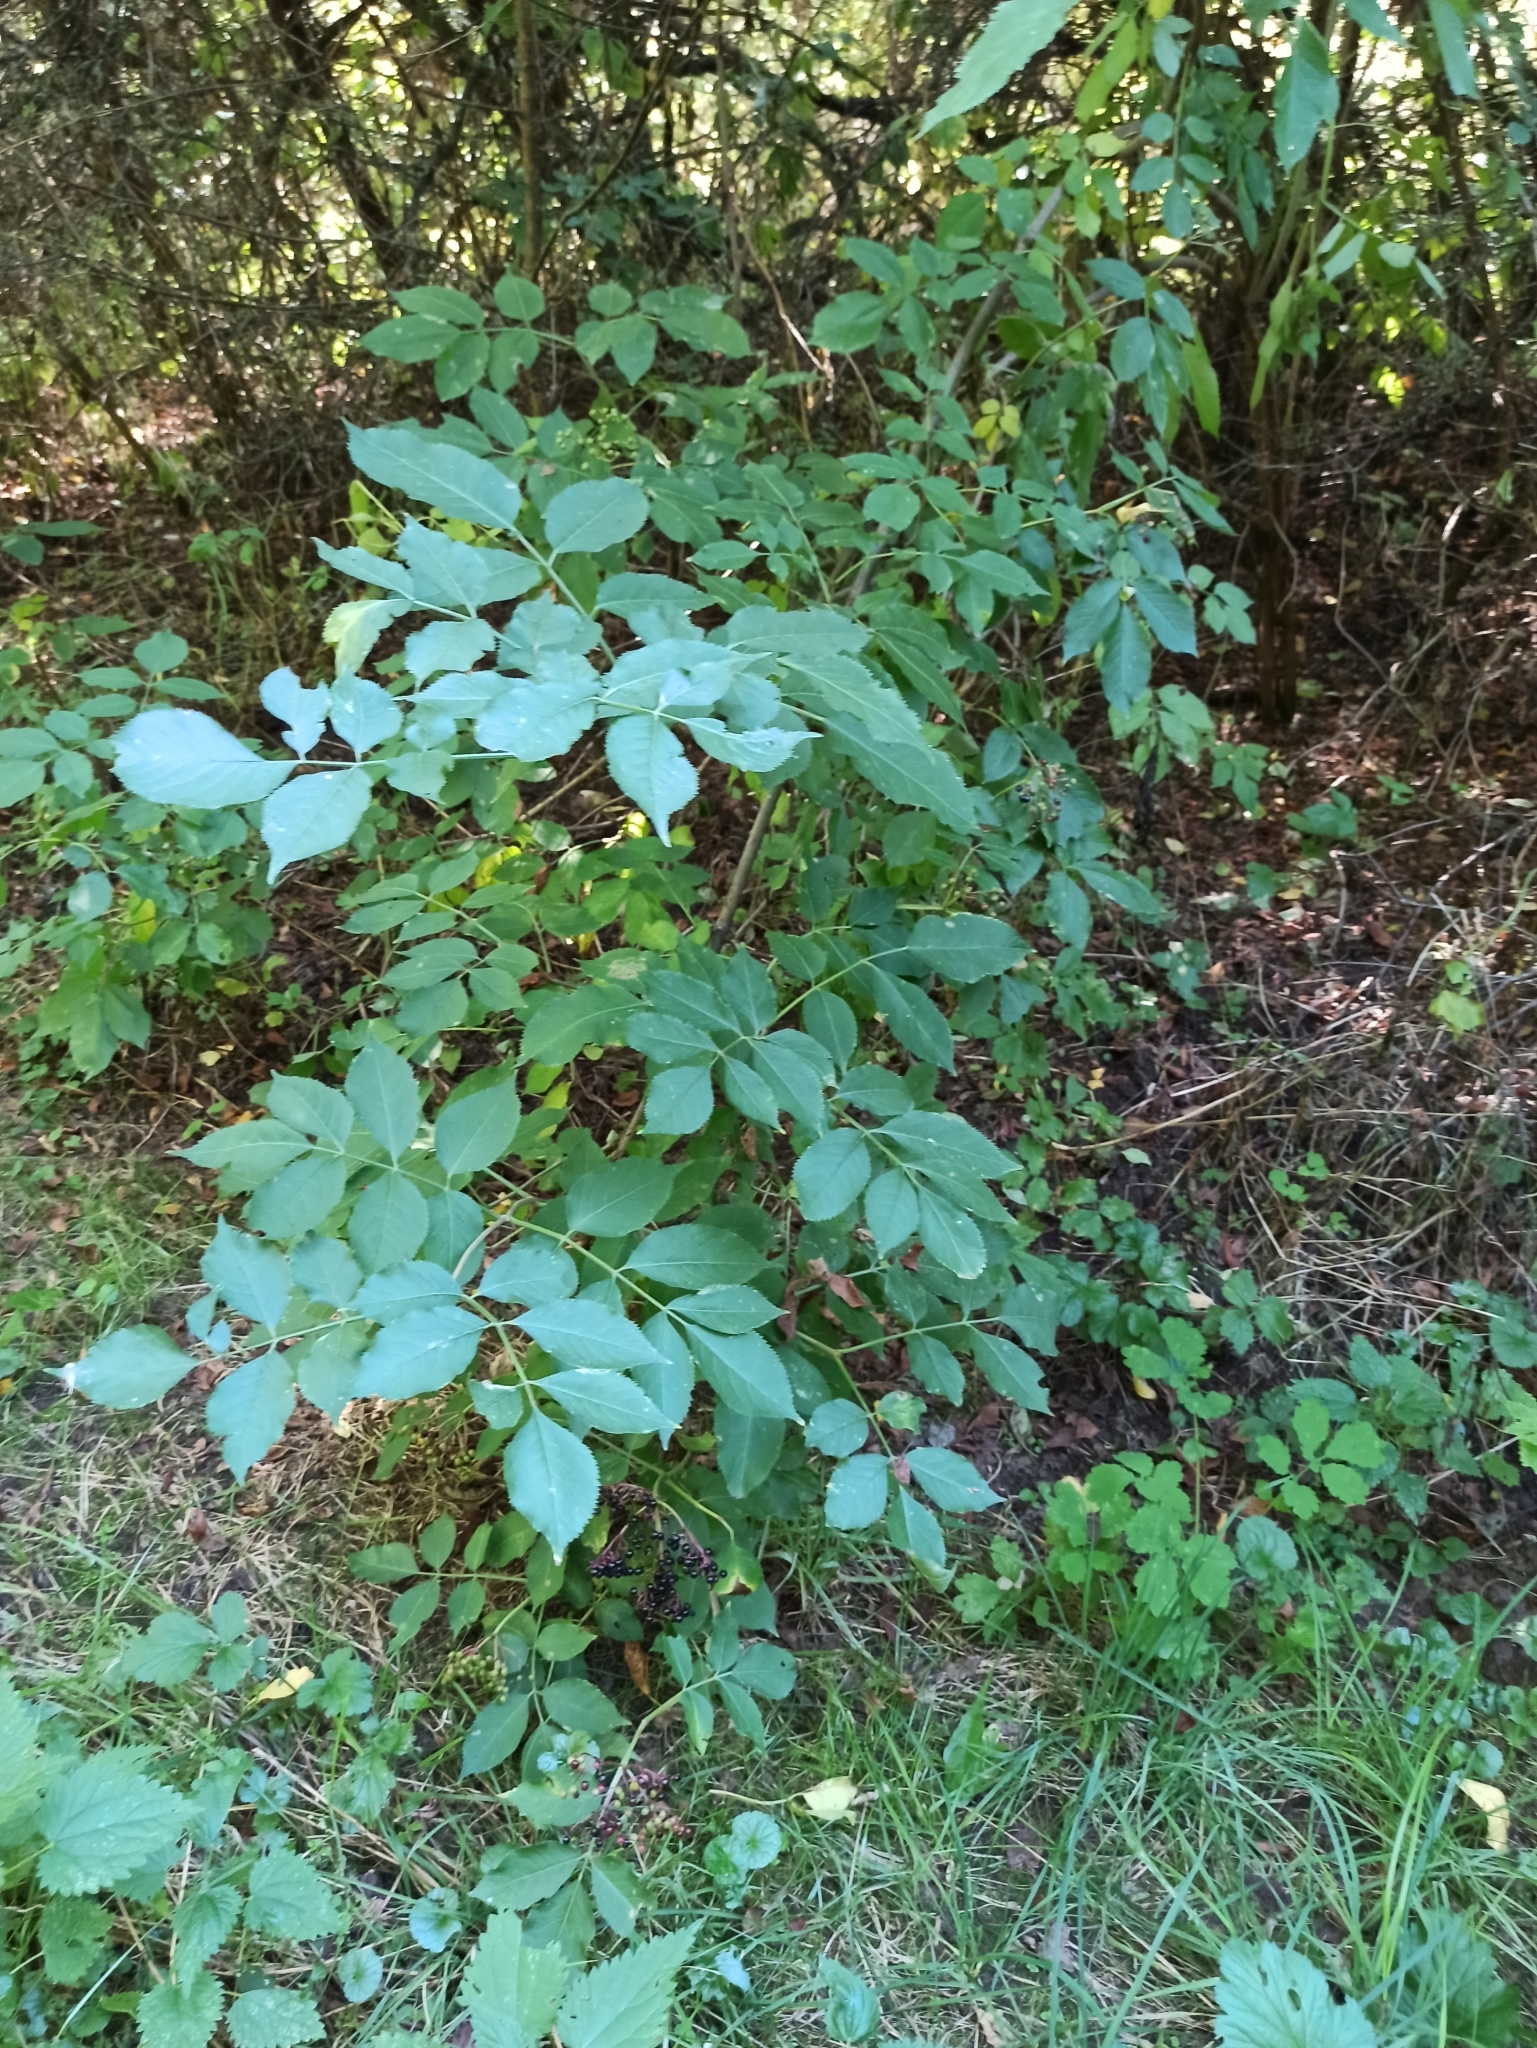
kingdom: Plantae
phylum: Tracheophyta
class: Magnoliopsida
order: Dipsacales
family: Viburnaceae
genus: Sambucus
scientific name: Sambucus nigra
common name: Elder
